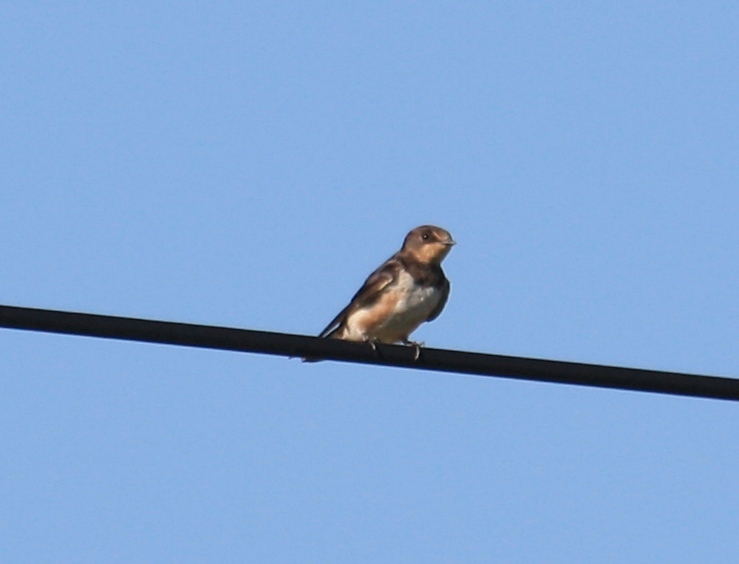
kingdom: Animalia
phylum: Chordata
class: Aves
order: Passeriformes
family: Hirundinidae
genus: Hirundo
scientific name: Hirundo rustica
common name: Barn swallow
